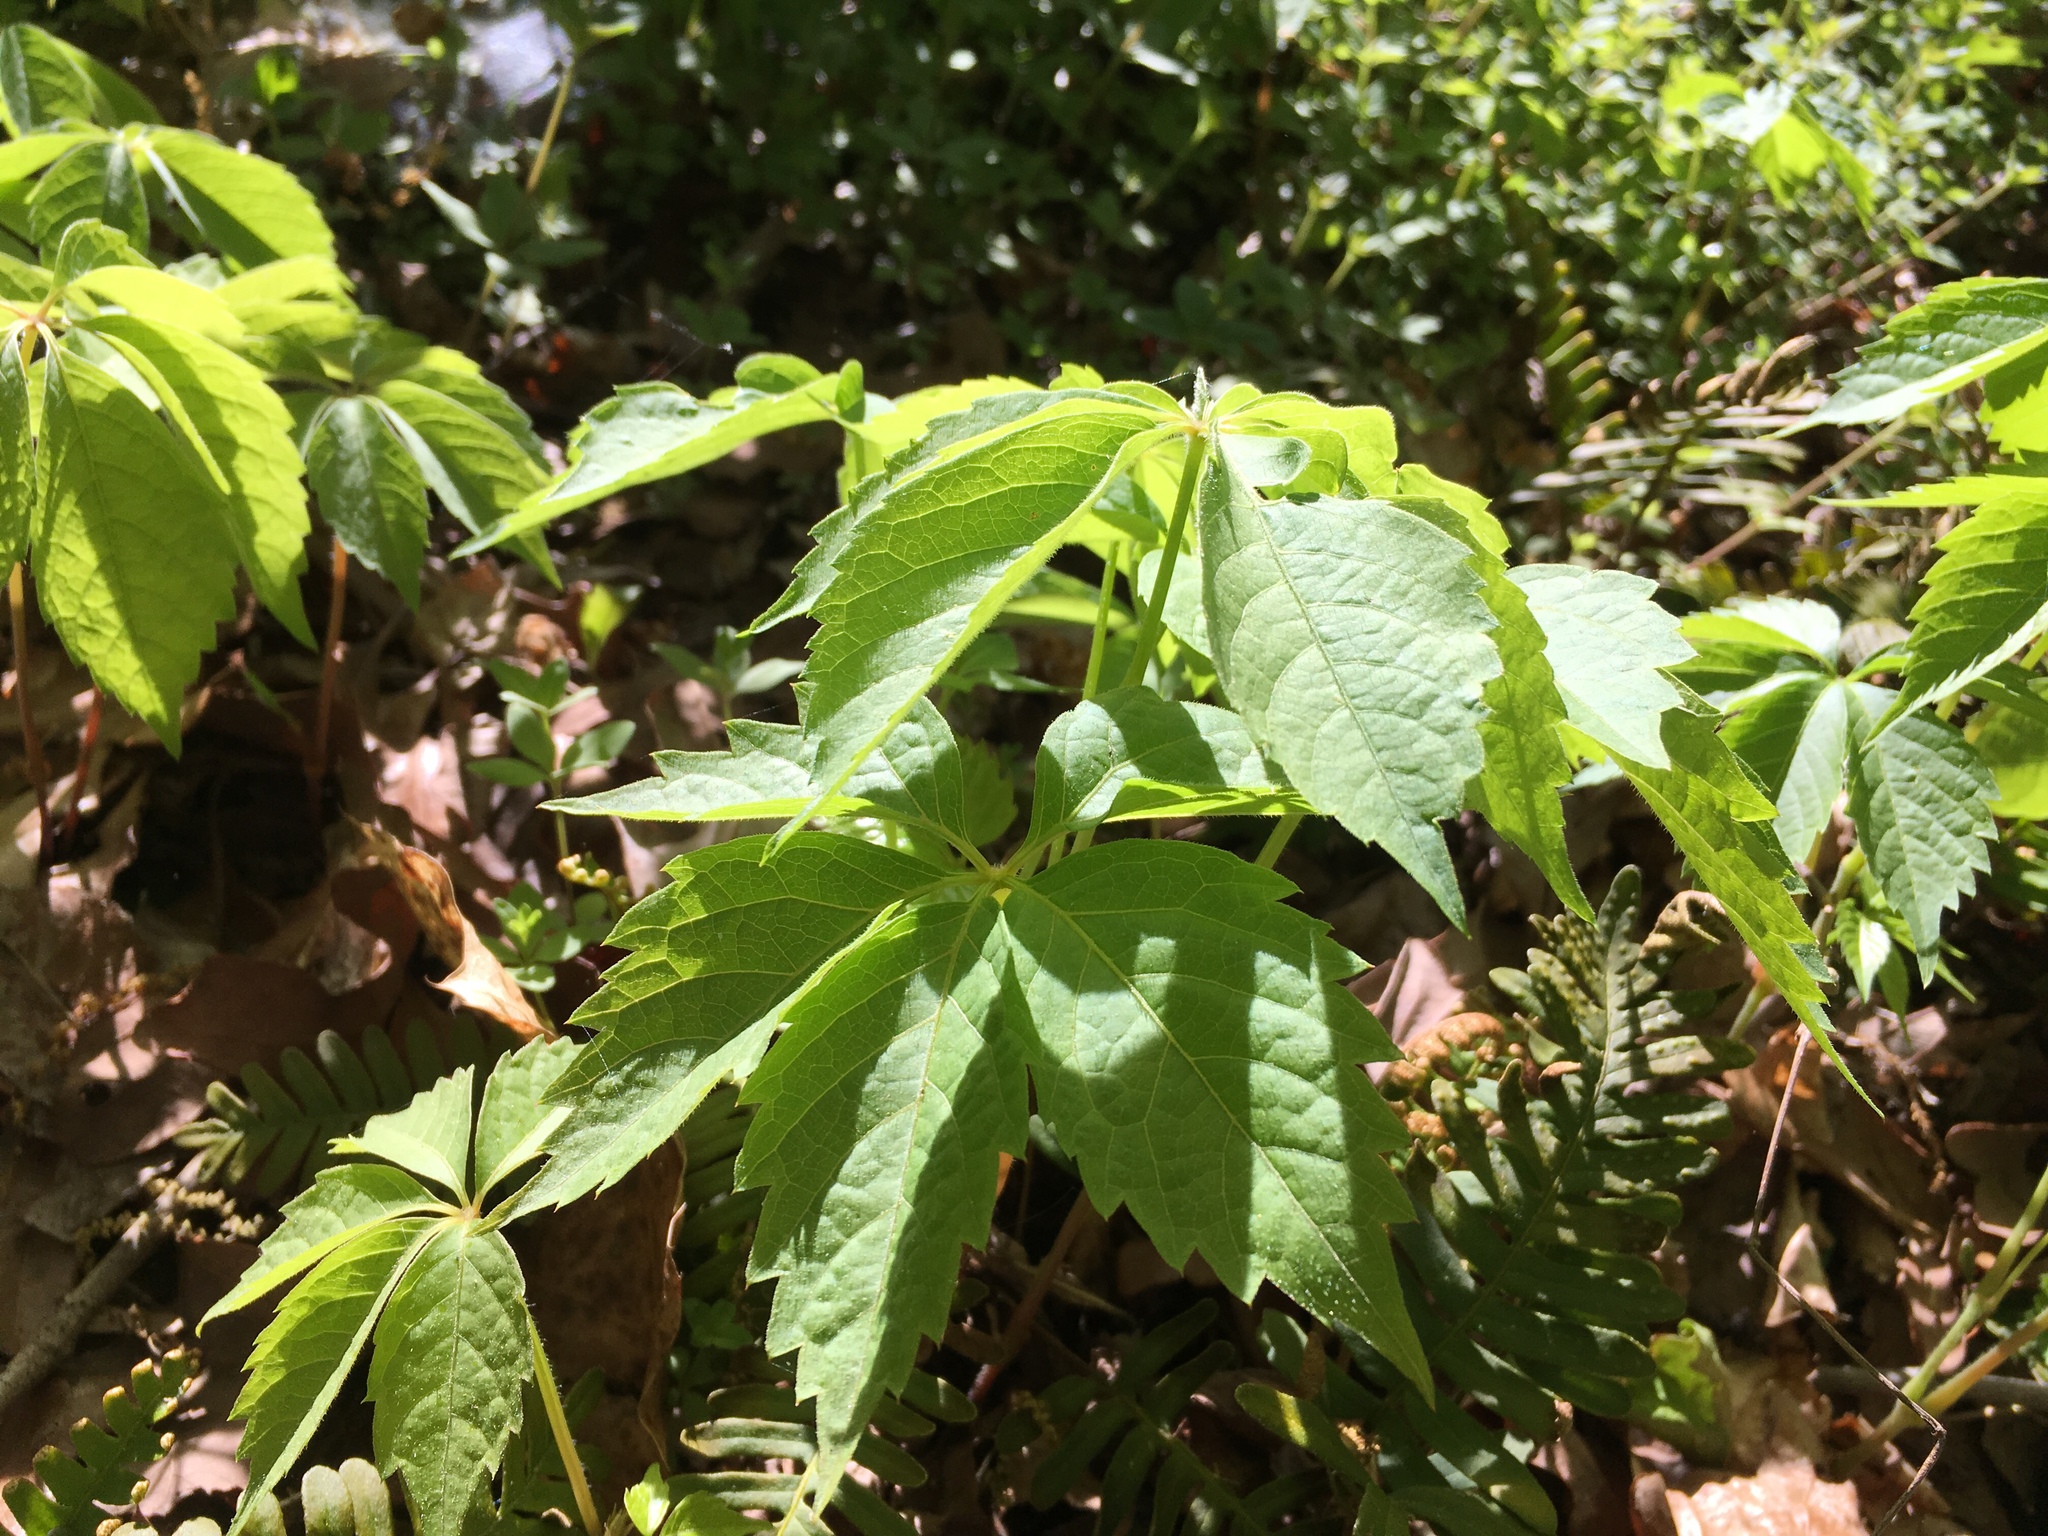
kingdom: Plantae
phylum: Tracheophyta
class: Magnoliopsida
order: Vitales
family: Vitaceae
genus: Parthenocissus
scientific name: Parthenocissus quinquefolia
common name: Virginia-creeper
